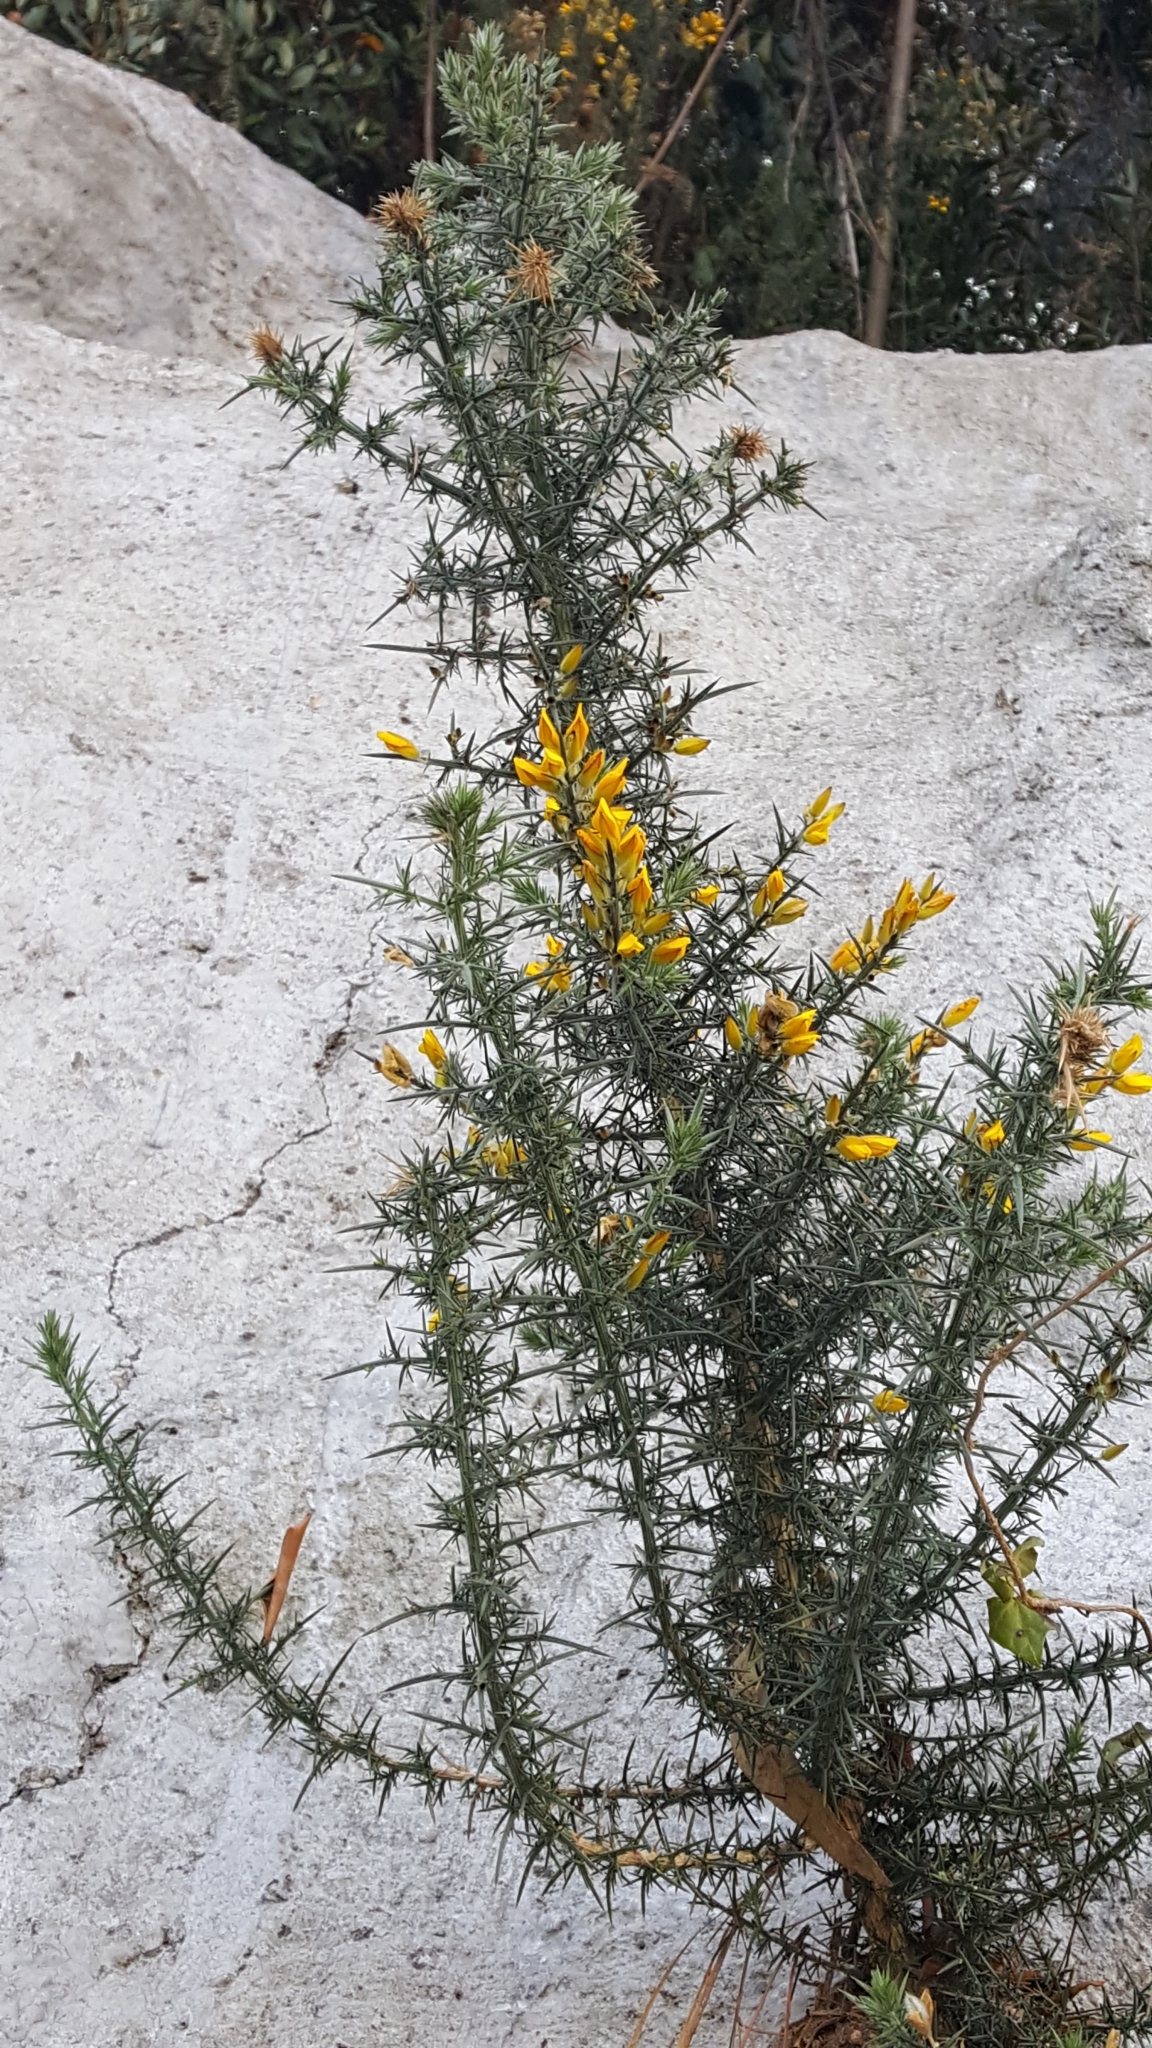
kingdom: Plantae
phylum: Tracheophyta
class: Magnoliopsida
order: Fabales
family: Fabaceae
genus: Ulex
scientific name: Ulex europaeus
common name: Common gorse
